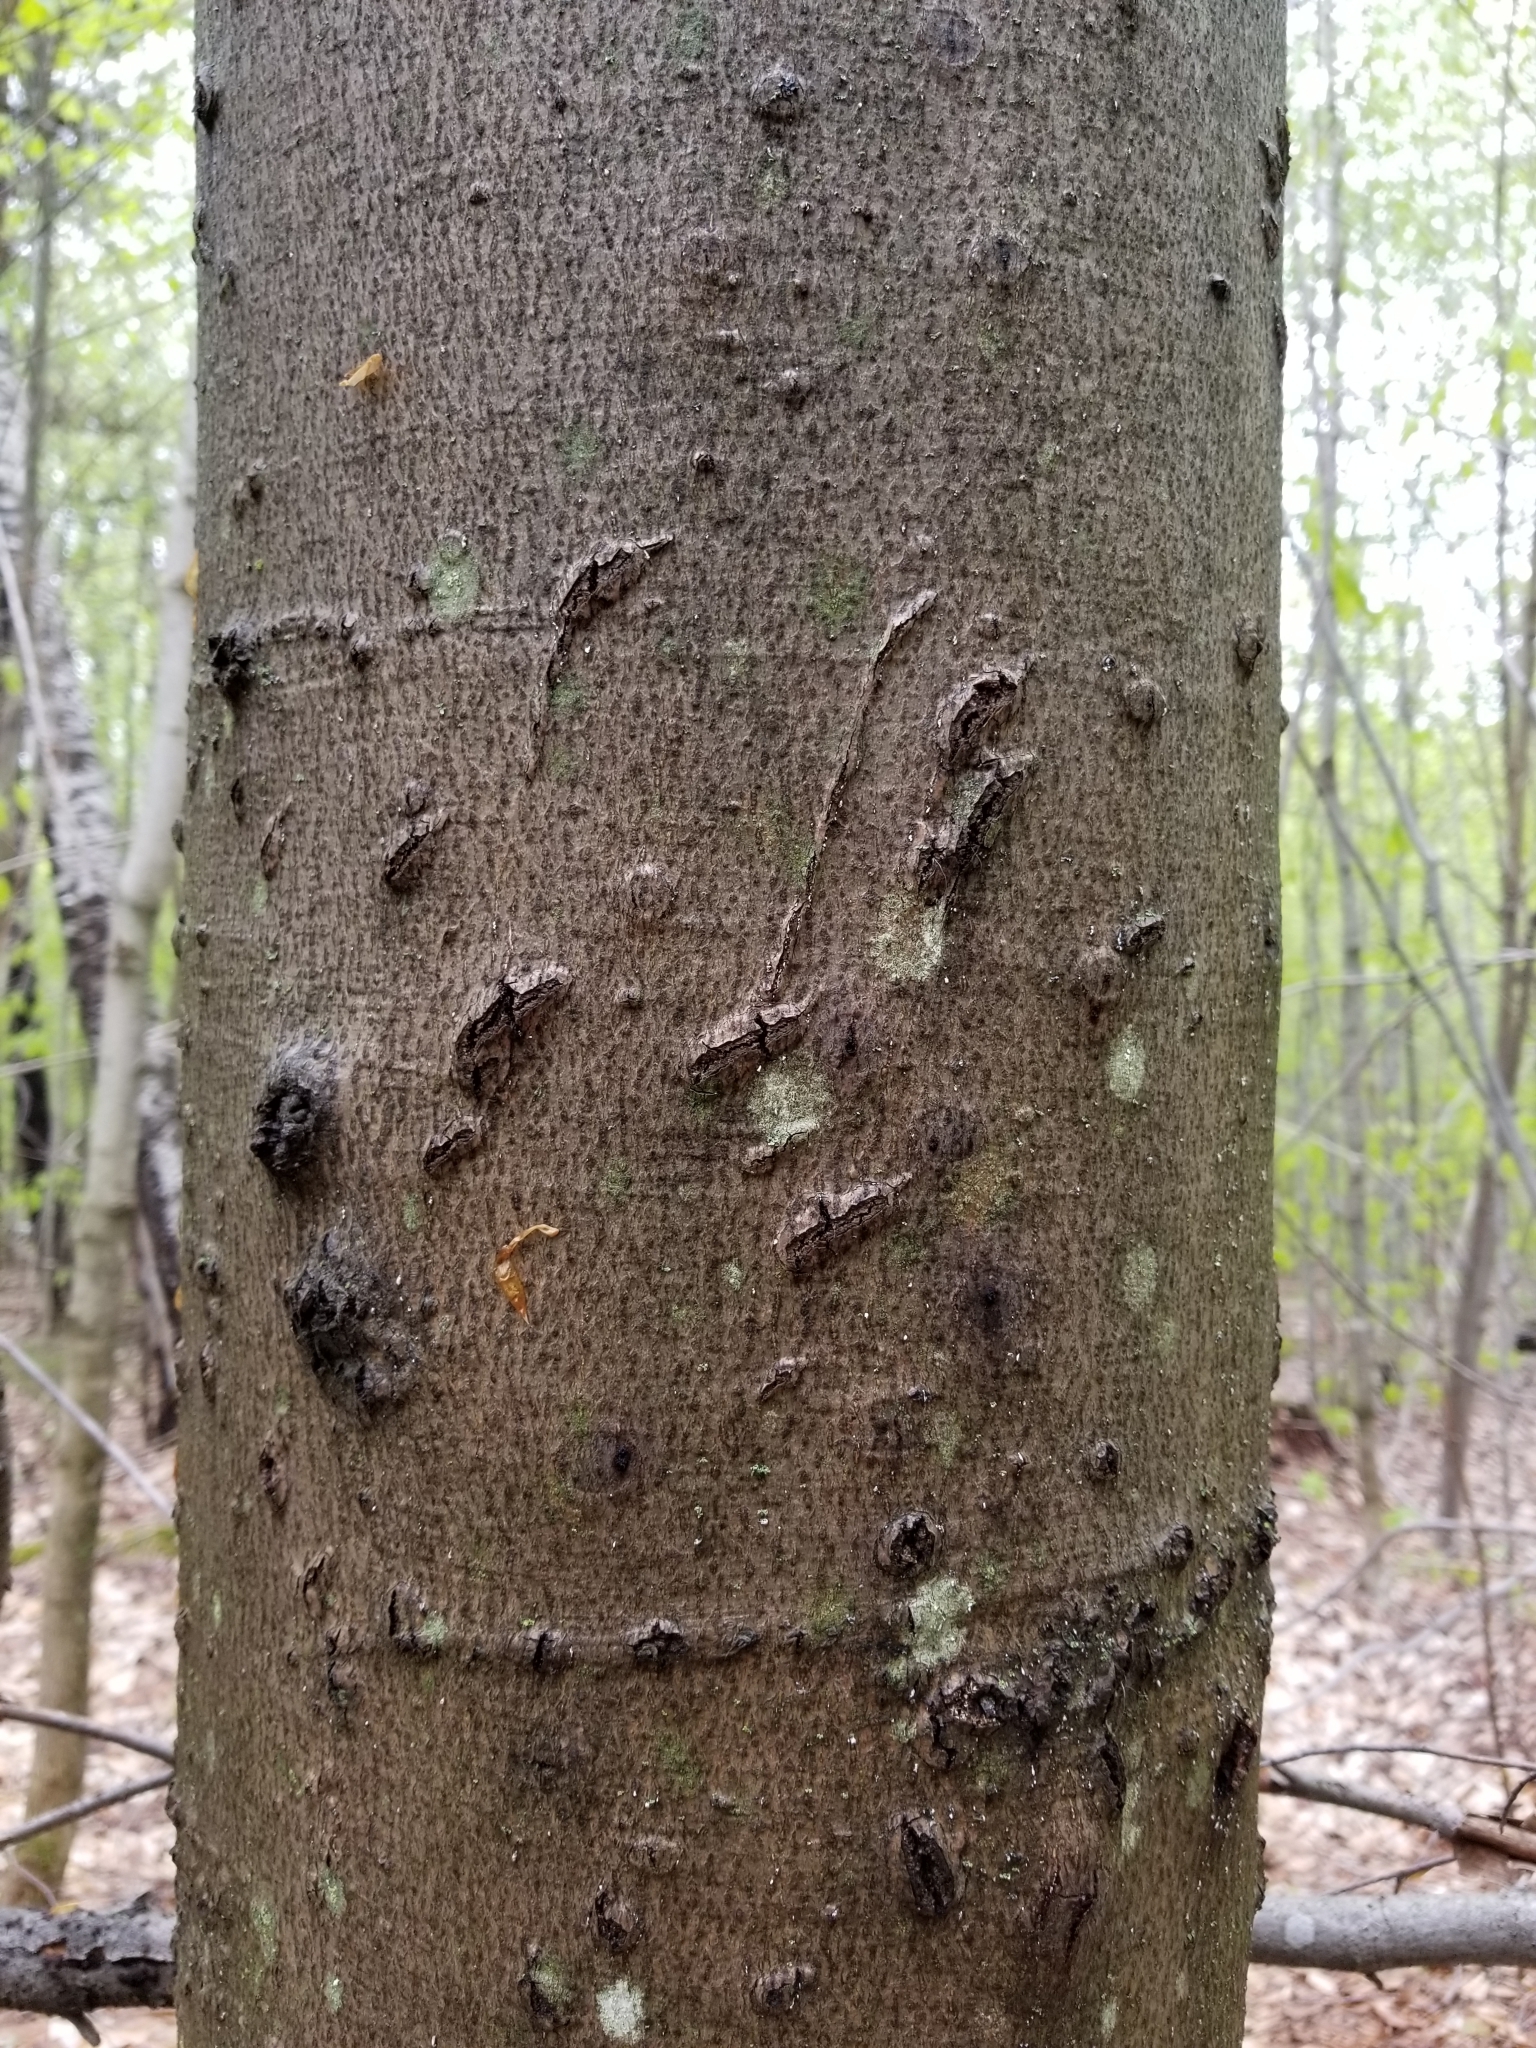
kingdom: Animalia
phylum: Chordata
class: Mammalia
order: Carnivora
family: Ursidae
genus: Ursus
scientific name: Ursus americanus
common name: American black bear
